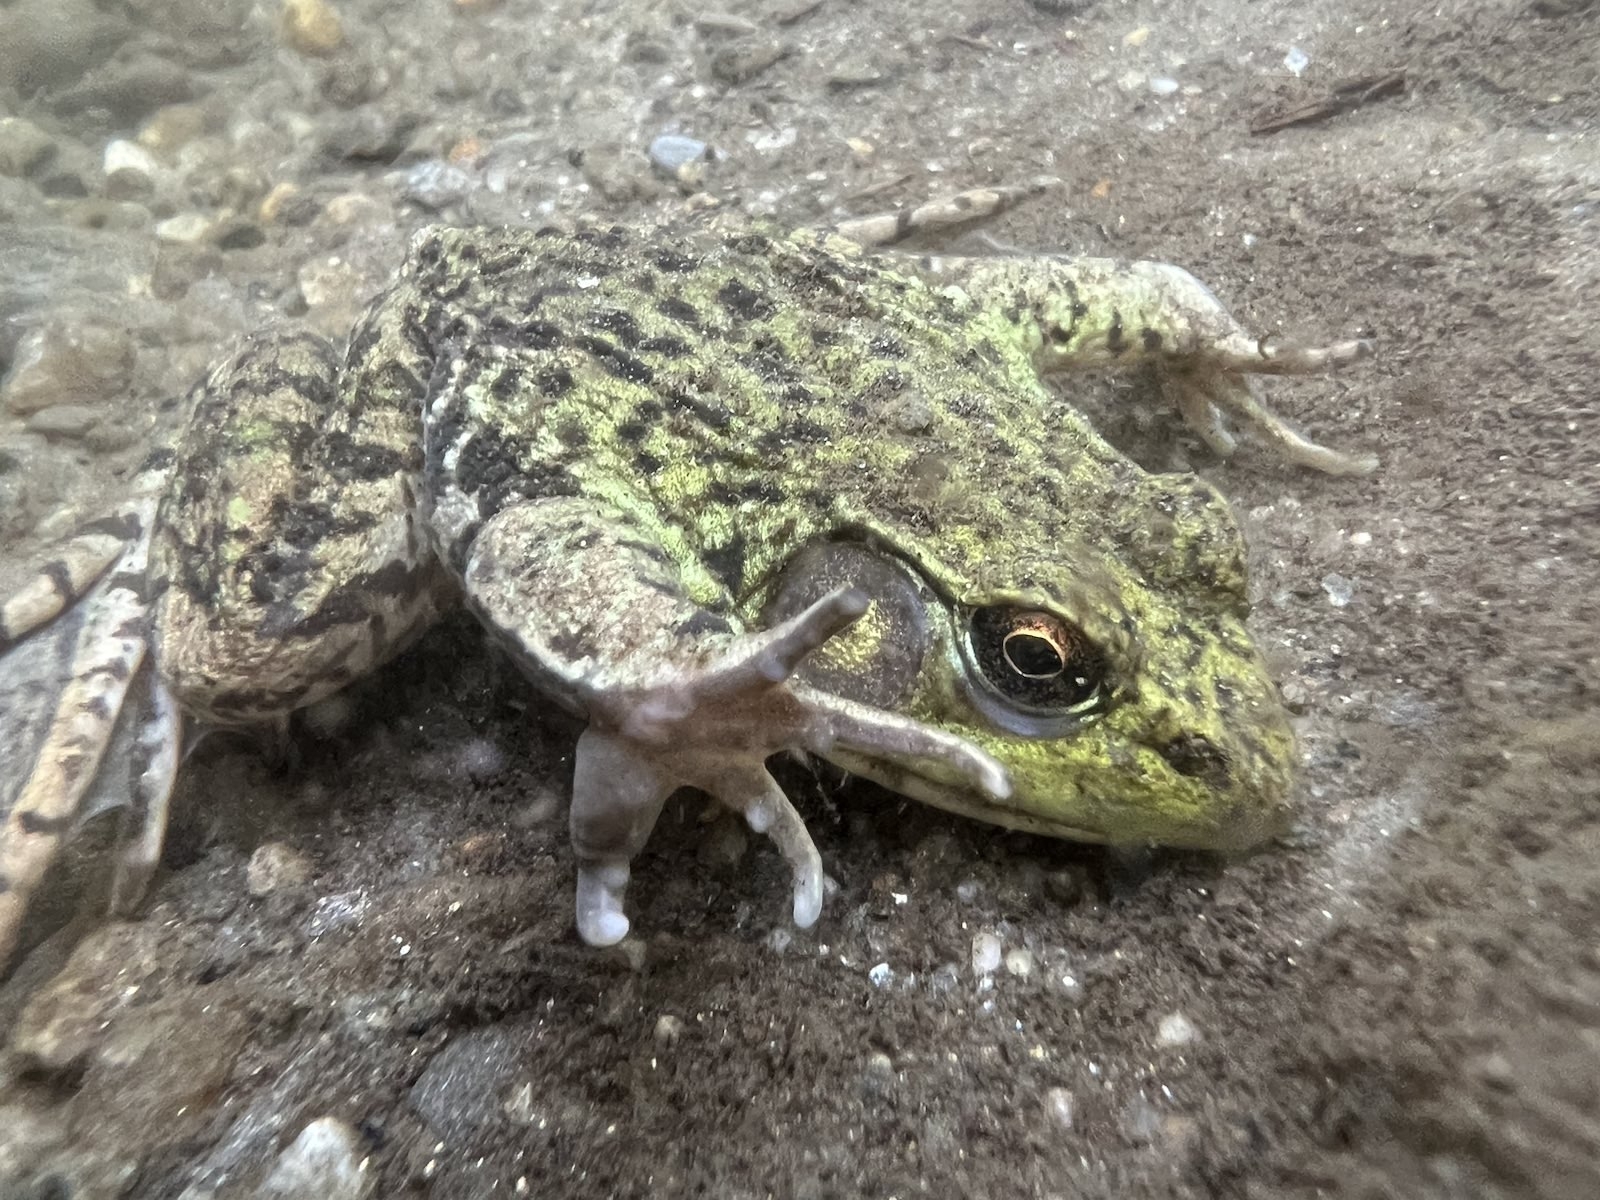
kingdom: Animalia
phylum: Chordata
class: Amphibia
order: Anura
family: Ranidae
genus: Lithobates
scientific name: Lithobates clamitans
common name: Green frog
